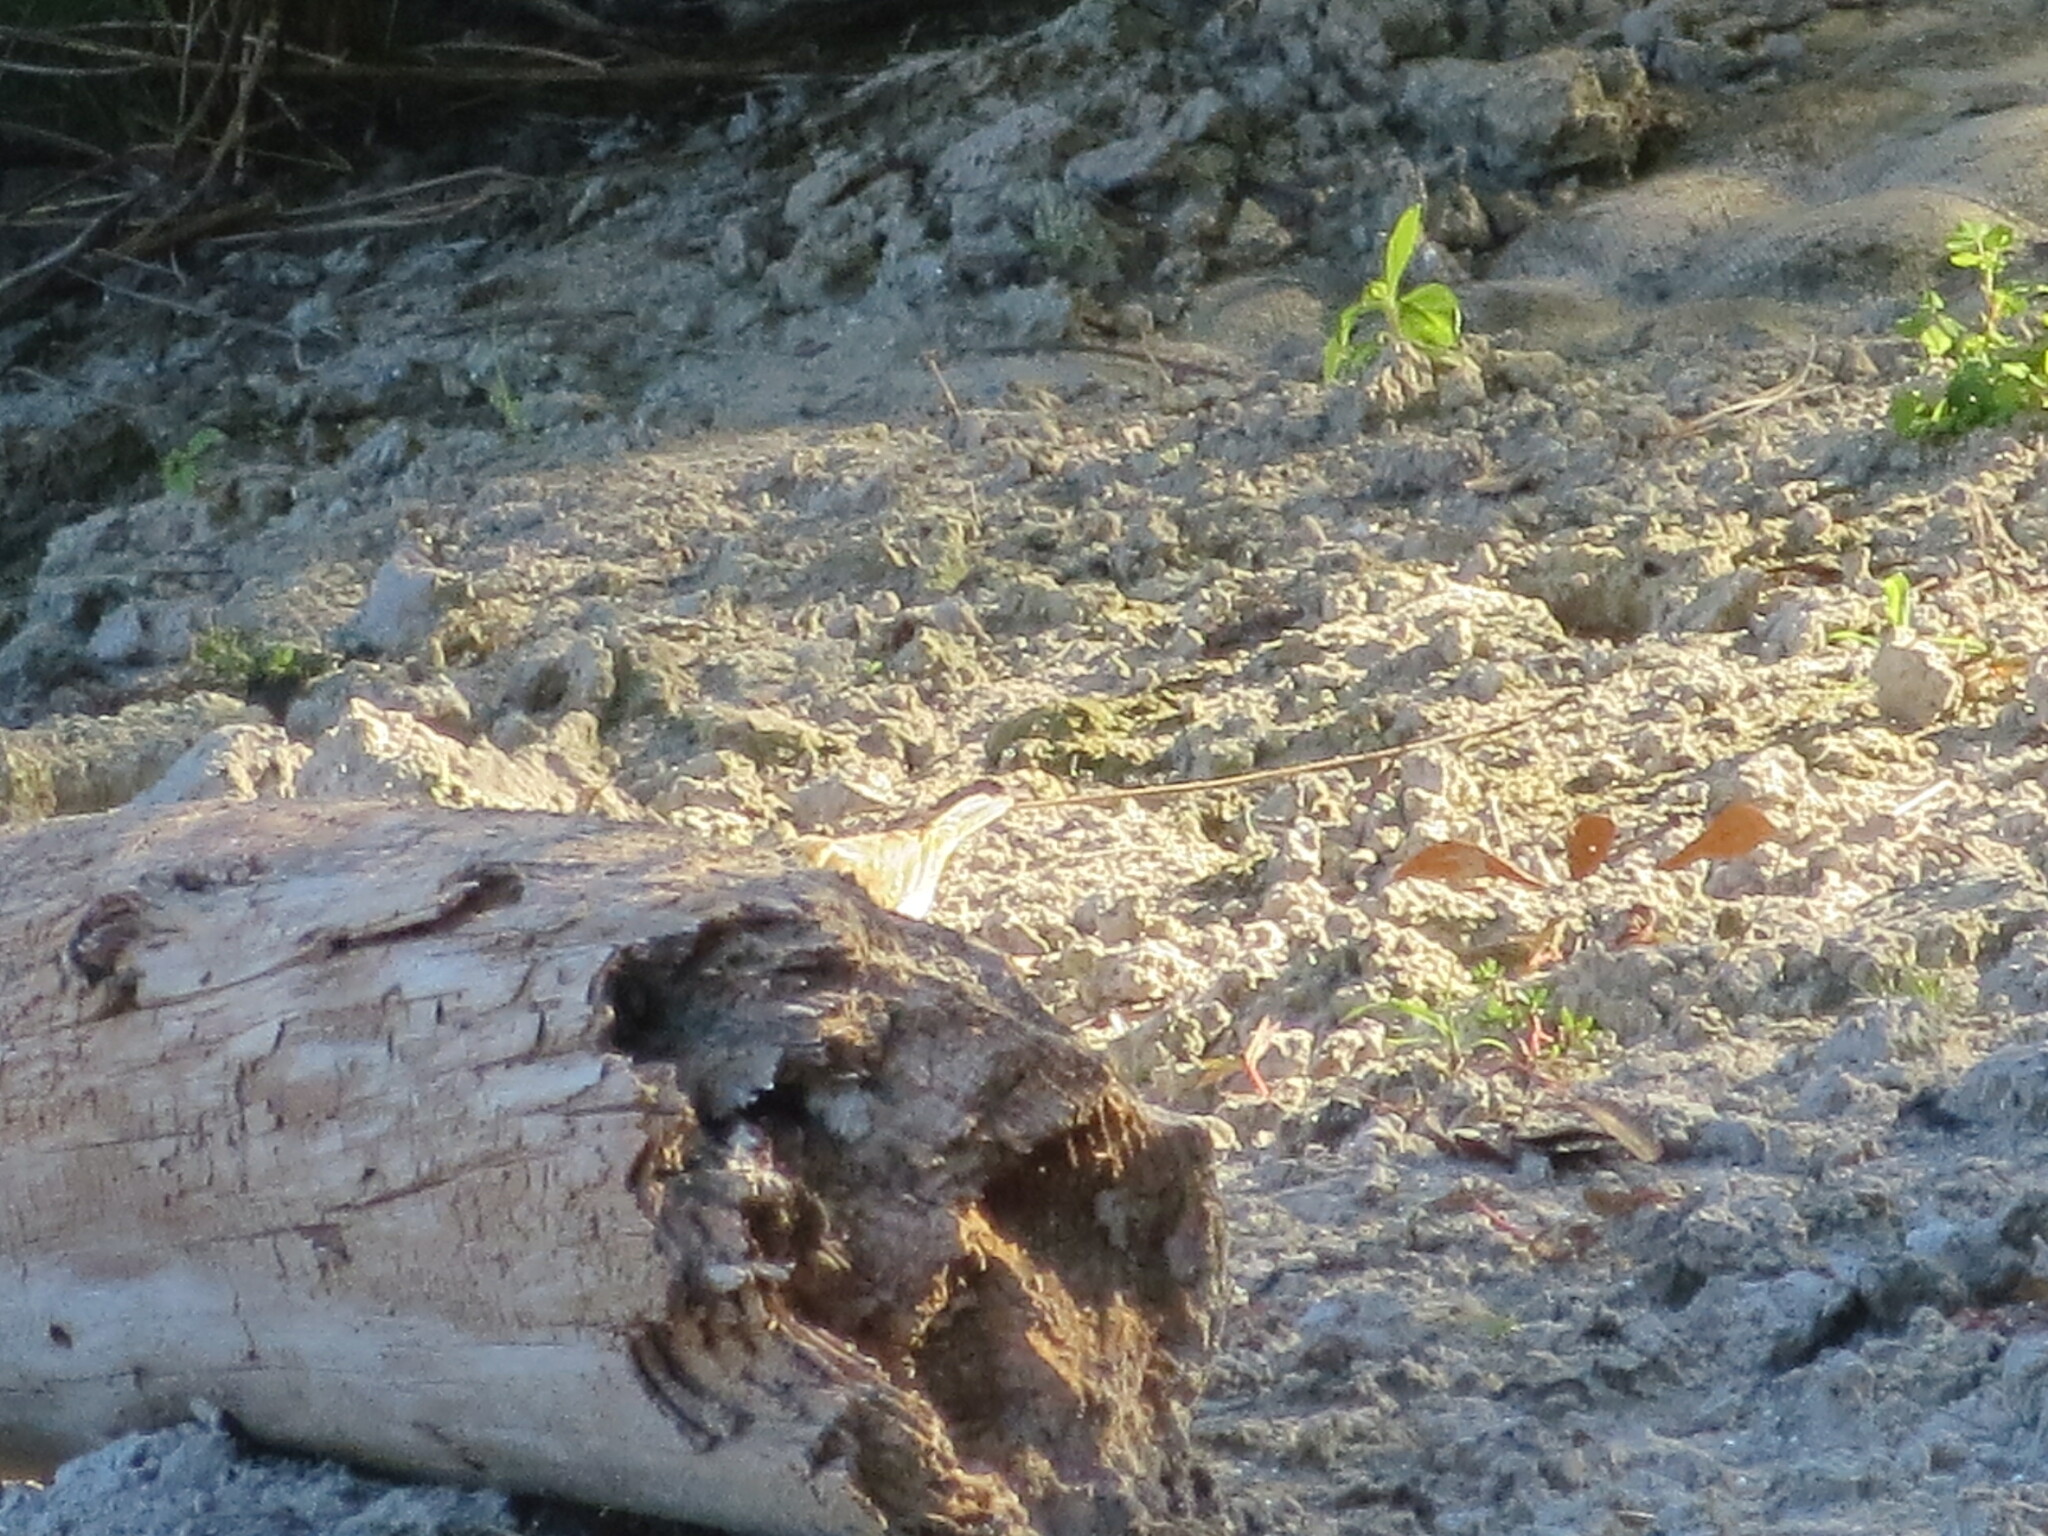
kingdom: Animalia
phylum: Chordata
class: Aves
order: Passeriformes
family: Parulidae
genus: Parkesia
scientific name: Parkesia noveboracensis
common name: Northern waterthrush
